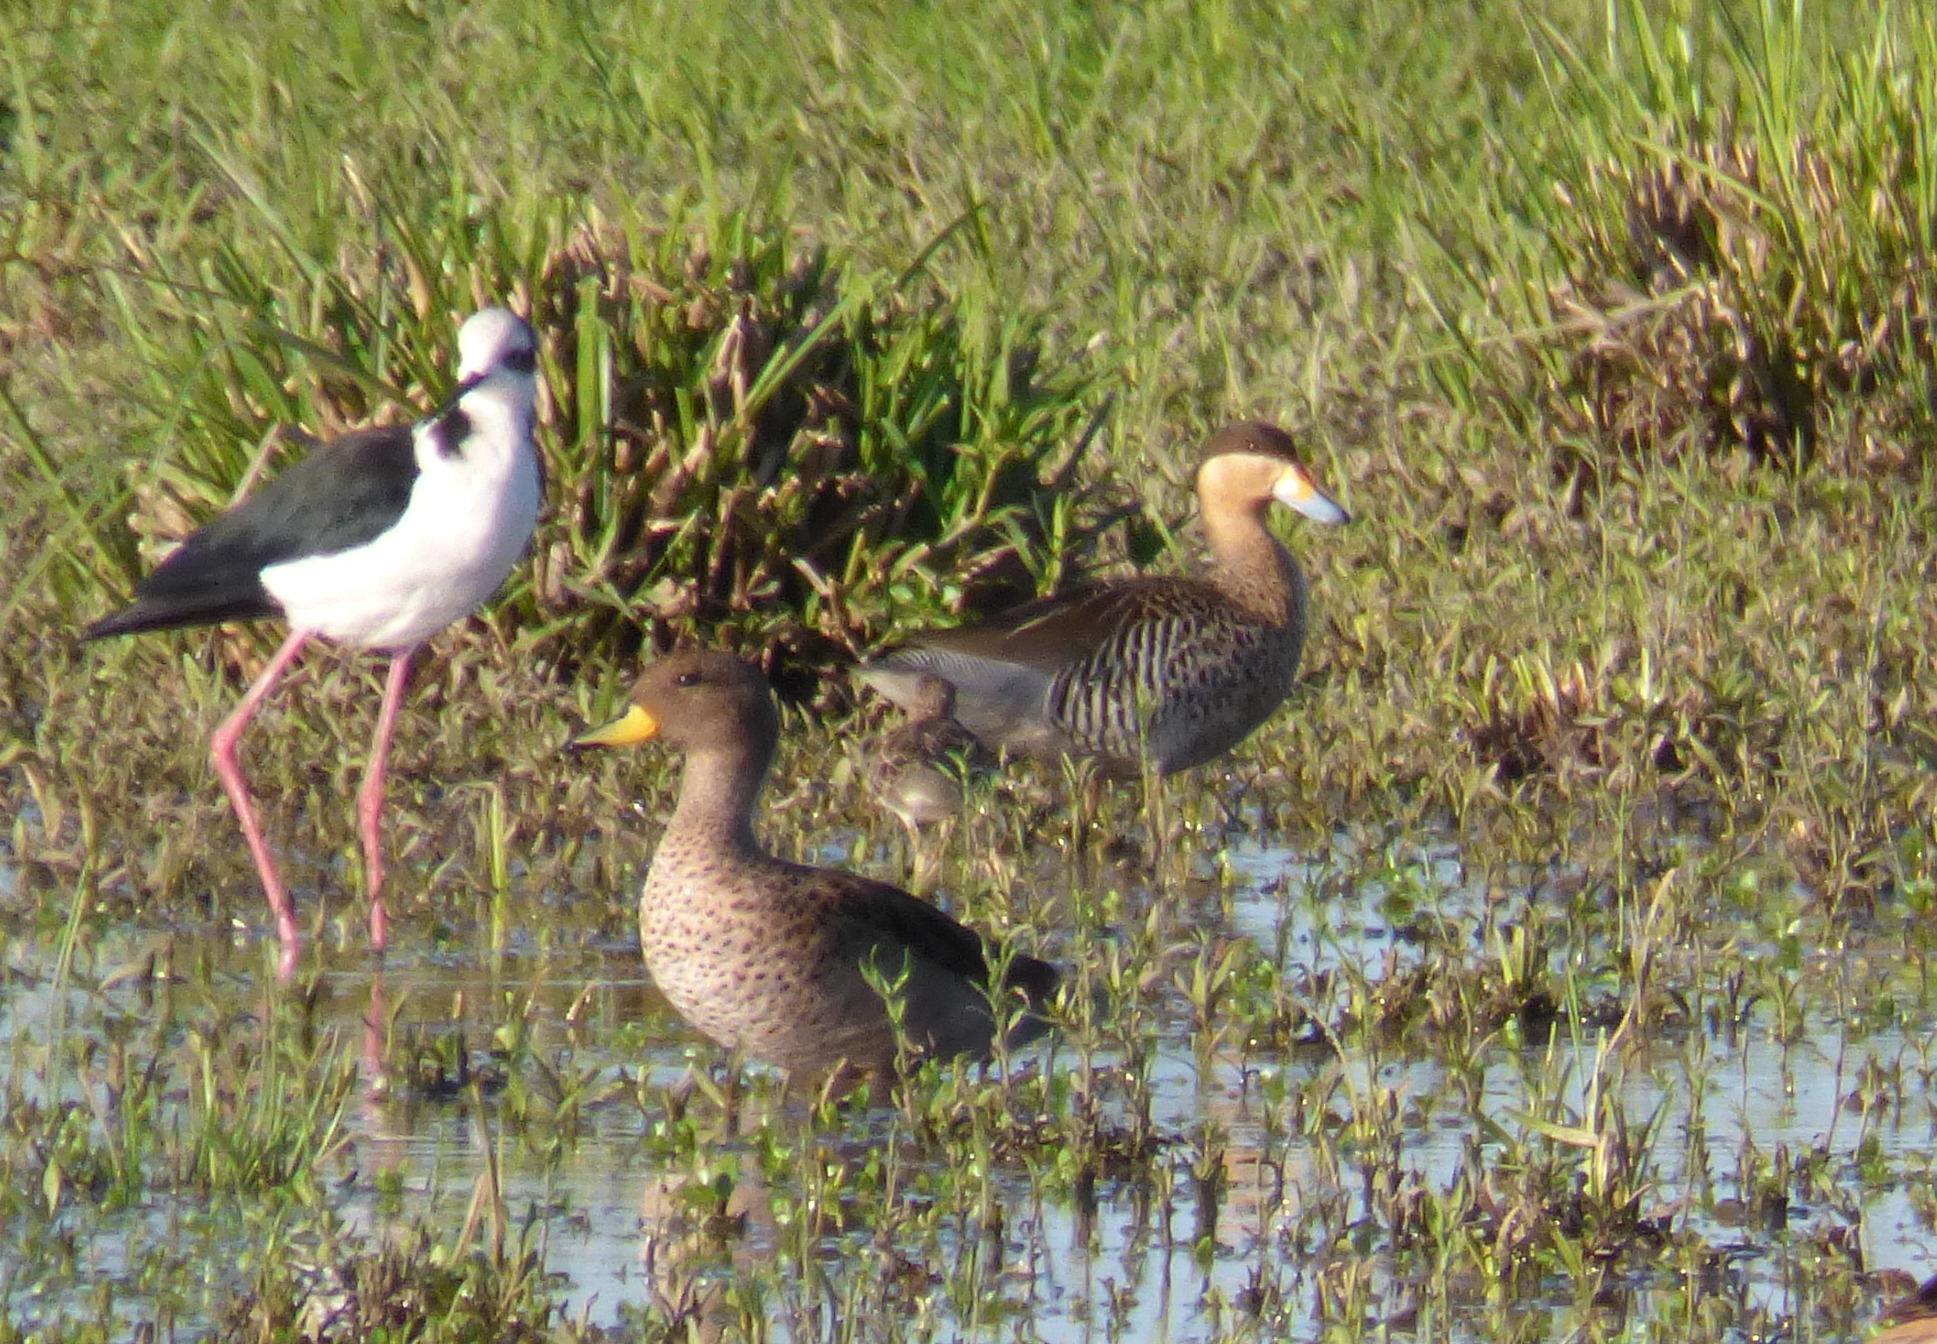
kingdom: Animalia
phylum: Chordata
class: Aves
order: Anseriformes
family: Anatidae
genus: Spatula
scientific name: Spatula versicolor
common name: Silver teal
